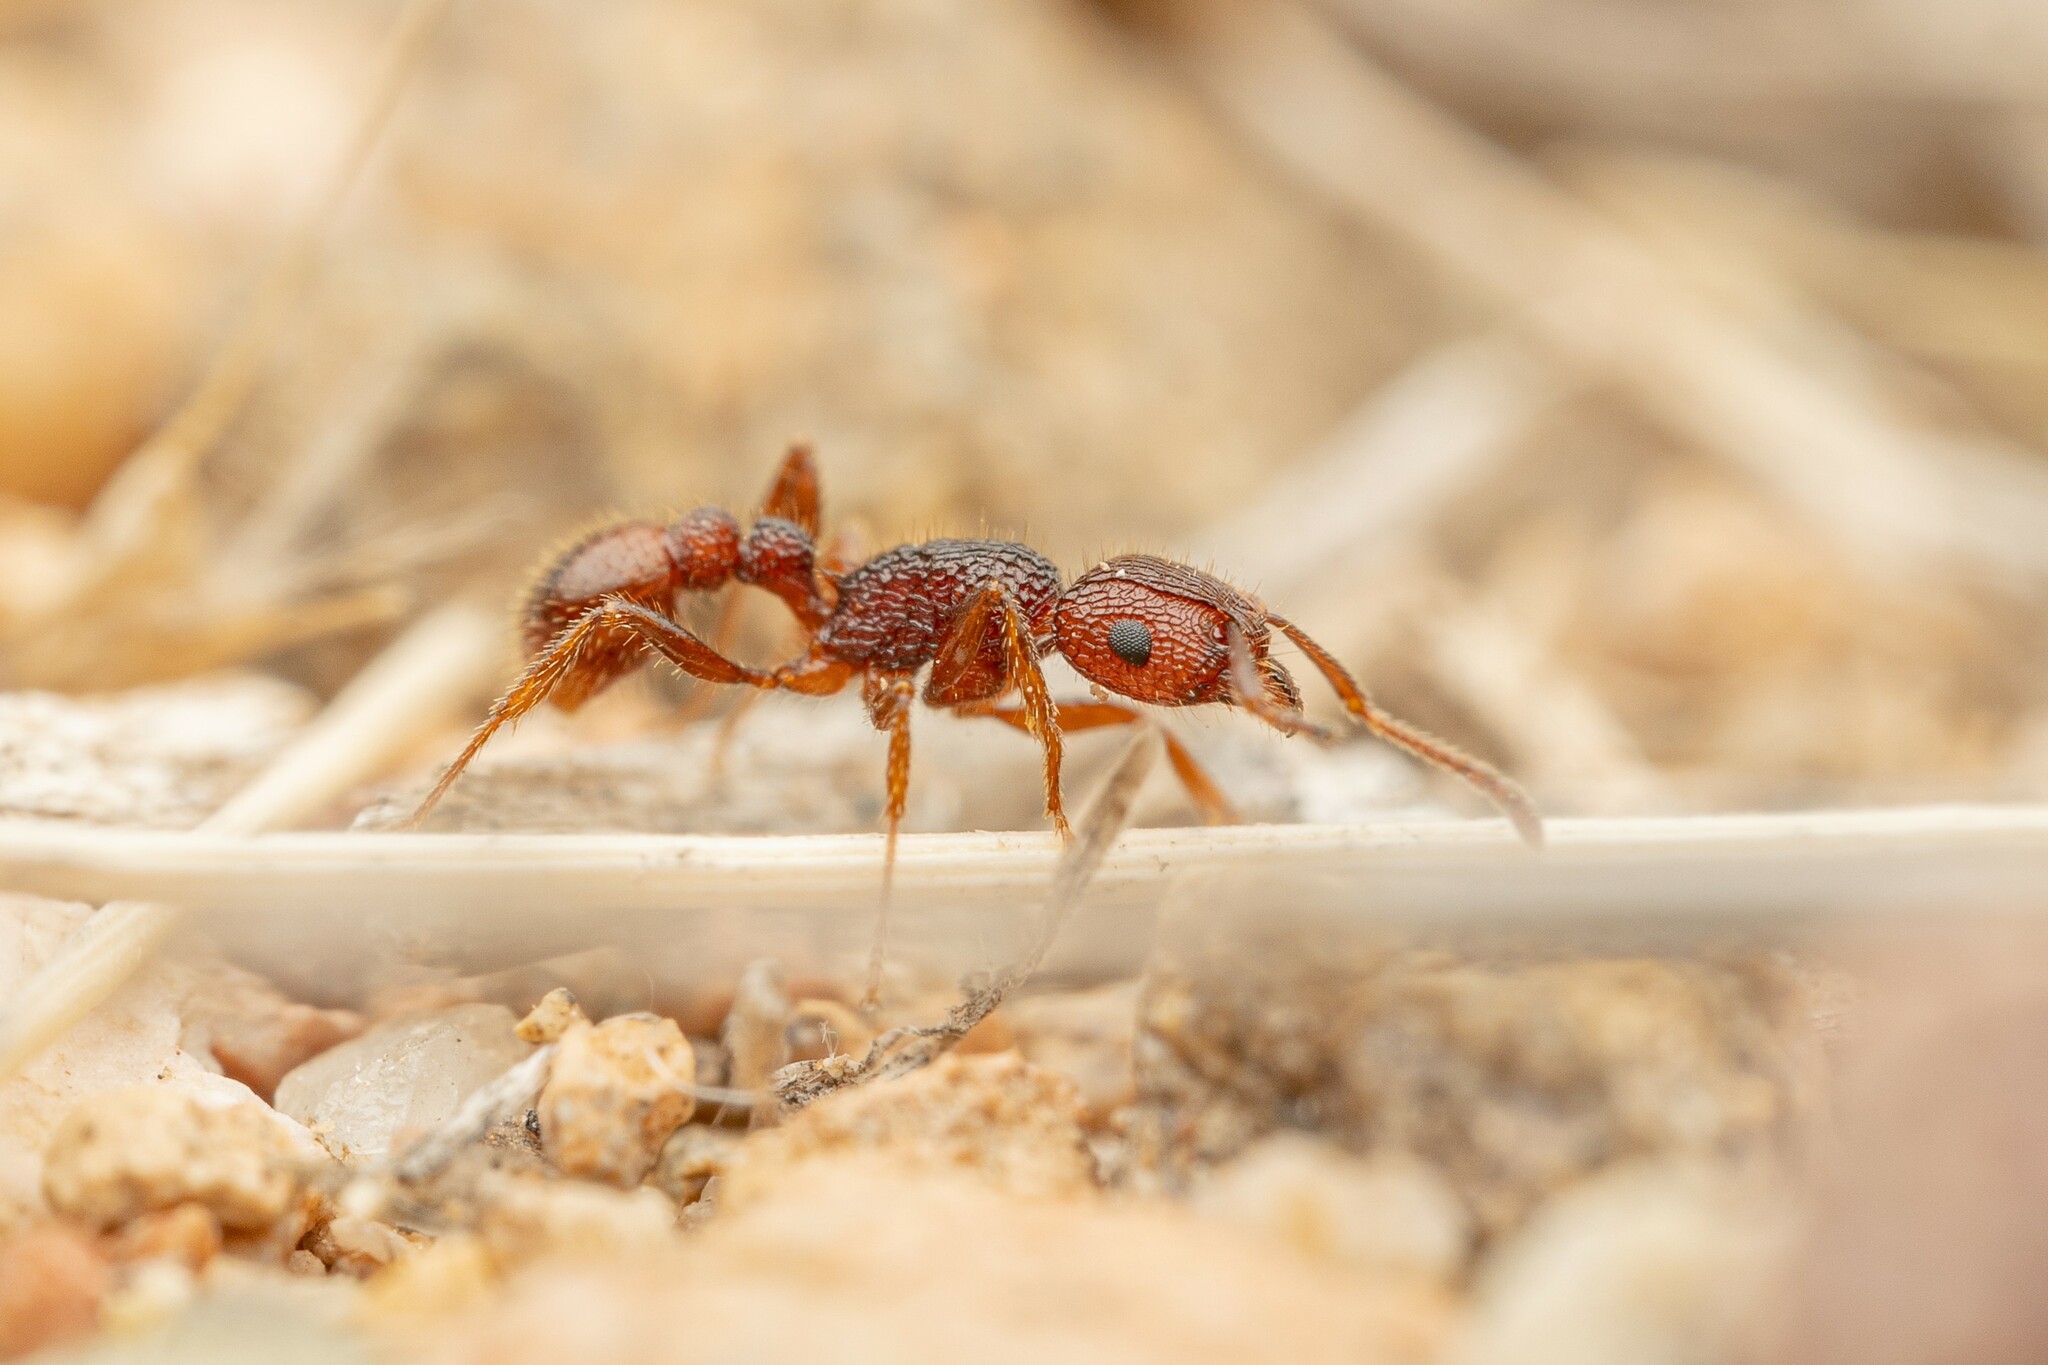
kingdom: Animalia
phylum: Arthropoda
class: Insecta
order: Hymenoptera
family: Formicidae
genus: Tetramorium
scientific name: Tetramorium hispidum
